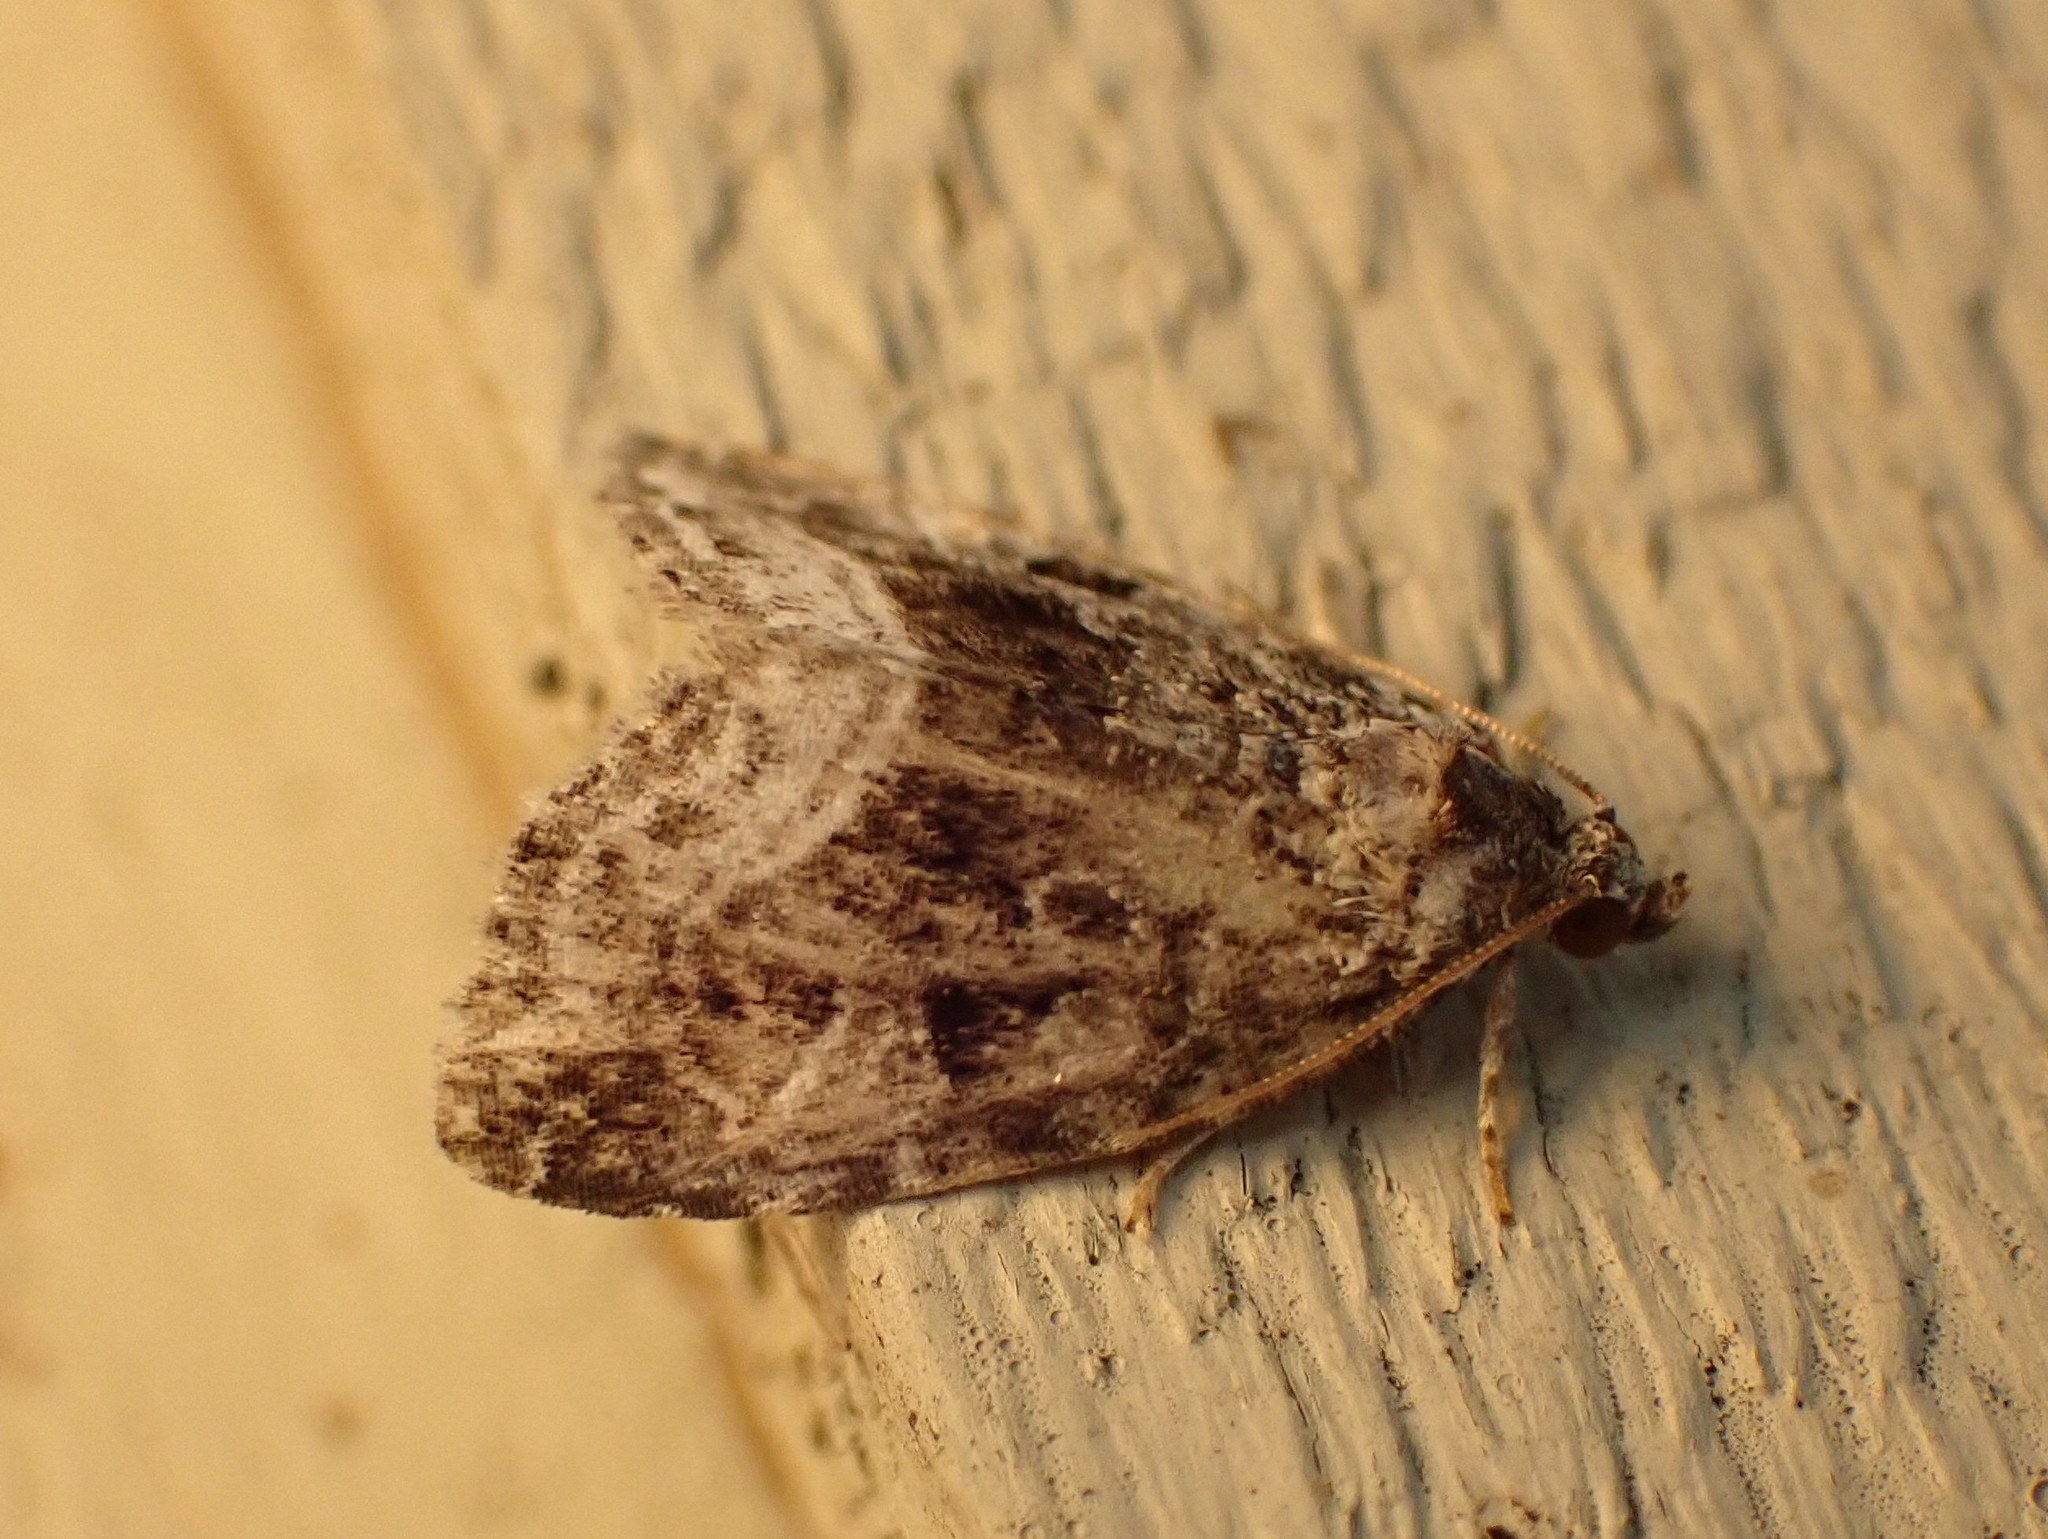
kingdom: Animalia
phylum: Arthropoda
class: Insecta
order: Lepidoptera
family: Noctuidae
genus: Protodeltote
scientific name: Protodeltote muscosula
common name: Large mossy glyph
